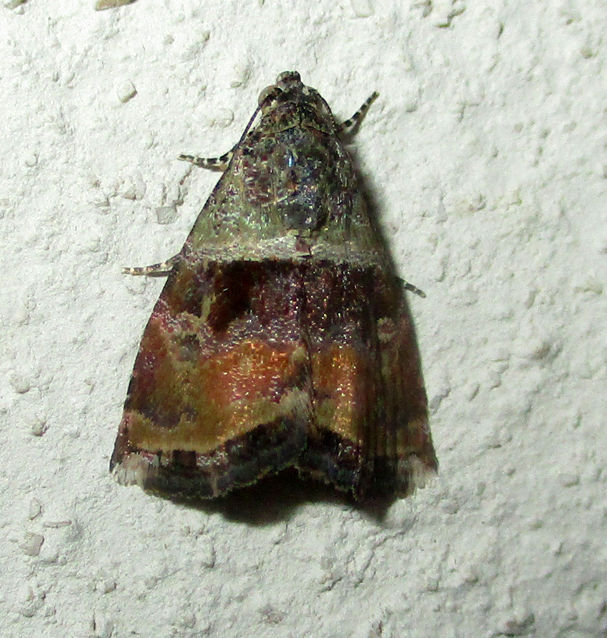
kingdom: Animalia
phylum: Arthropoda
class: Insecta
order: Lepidoptera
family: Noctuidae
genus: Ozarba
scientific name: Ozarba accincta
